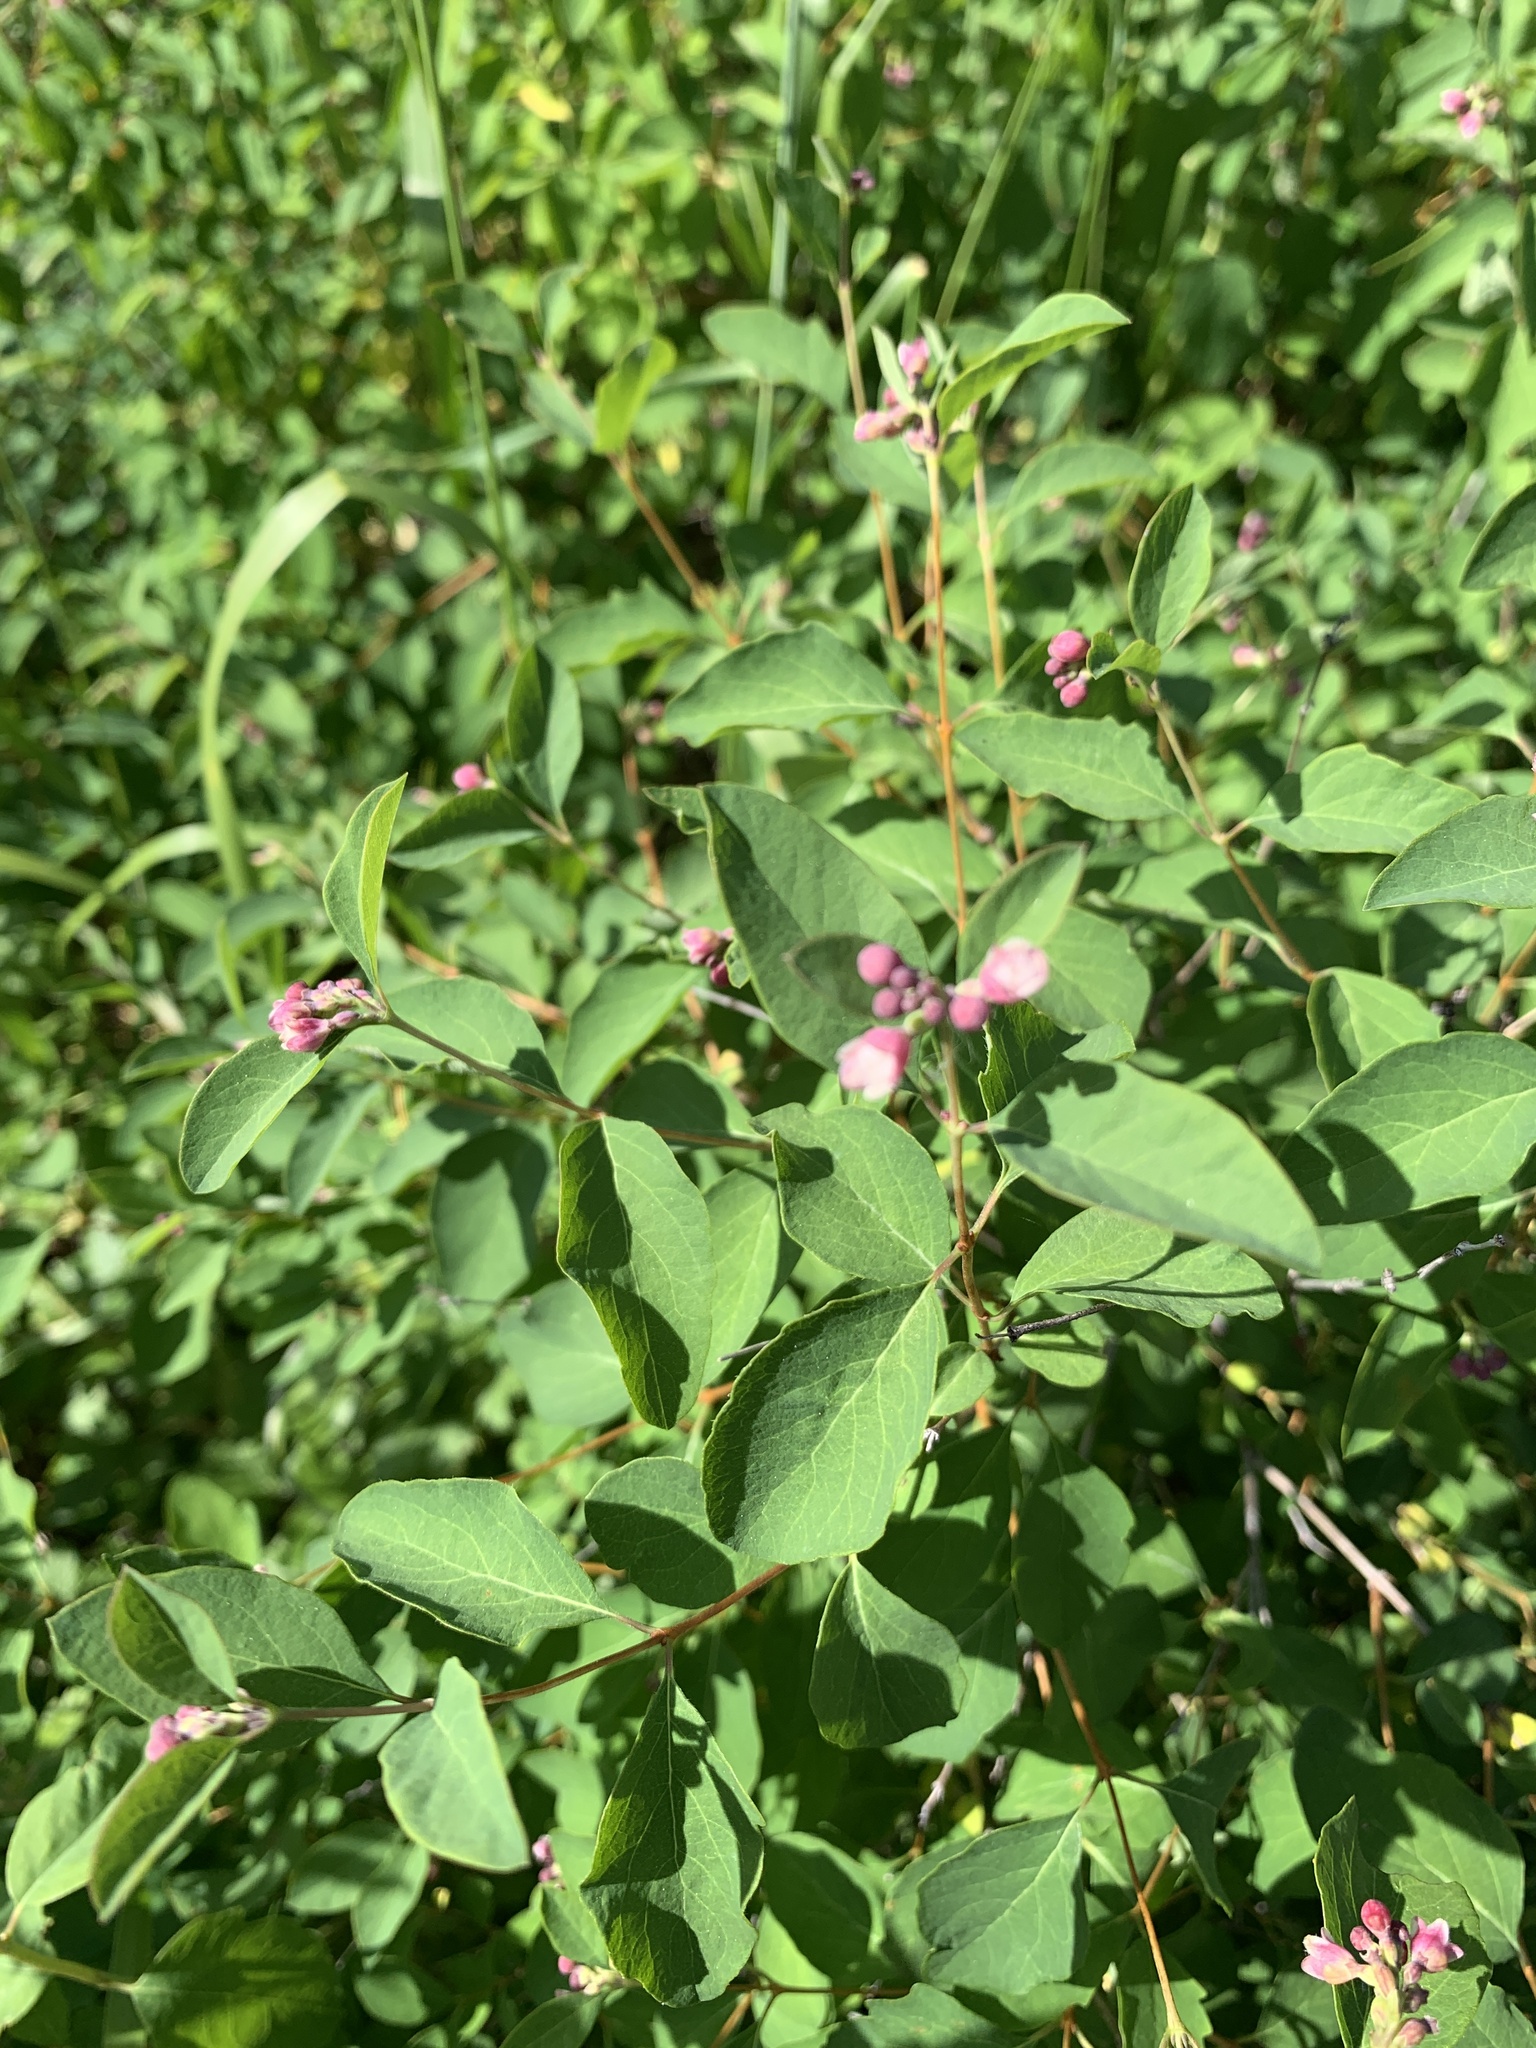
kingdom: Plantae
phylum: Tracheophyta
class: Magnoliopsida
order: Dipsacales
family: Caprifoliaceae
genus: Symphoricarpos
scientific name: Symphoricarpos albus
